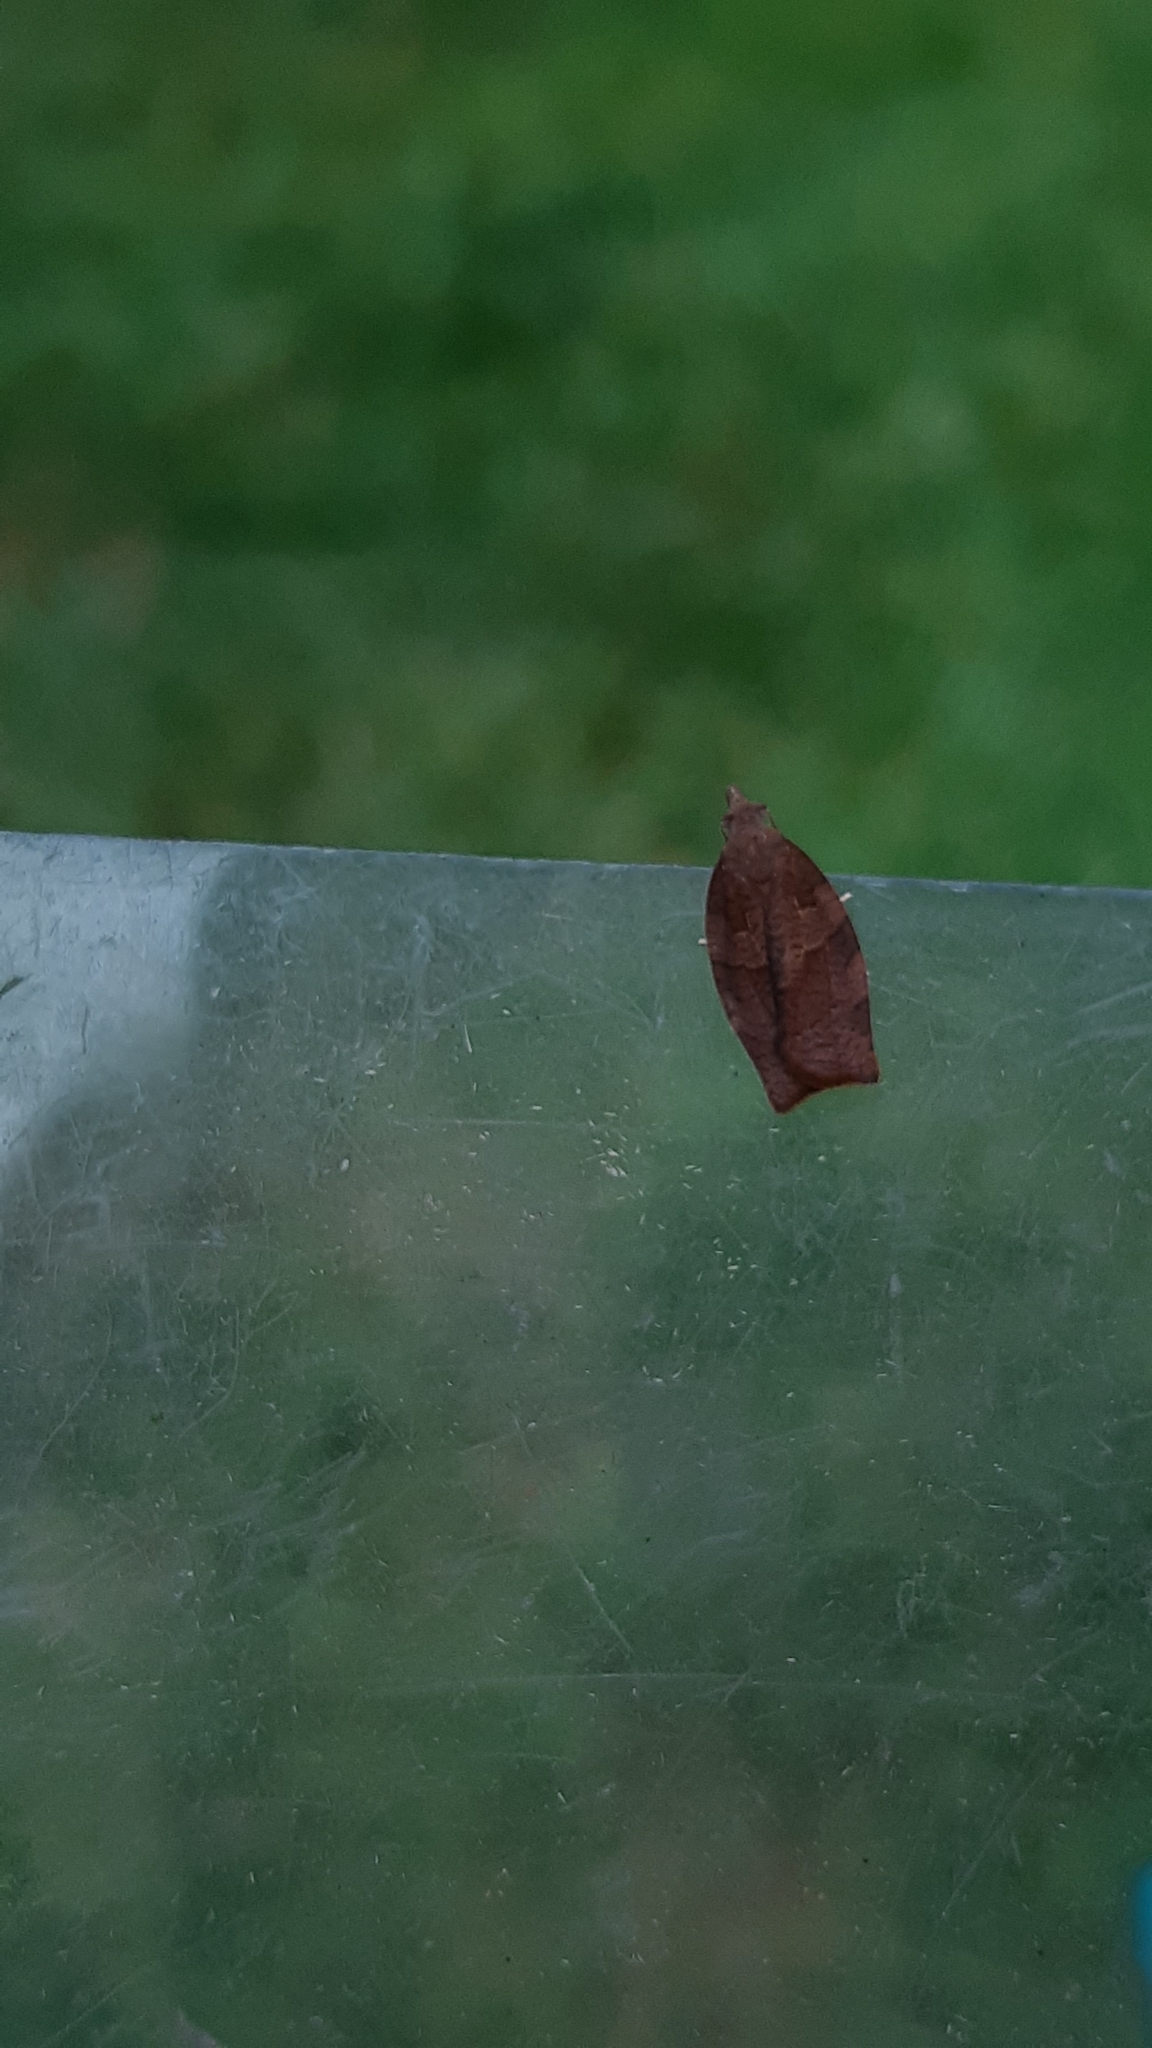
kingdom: Animalia
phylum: Arthropoda
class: Insecta
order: Lepidoptera
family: Tortricidae
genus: Pandemis
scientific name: Pandemis heparana
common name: Dark fruit-tree tortrix
